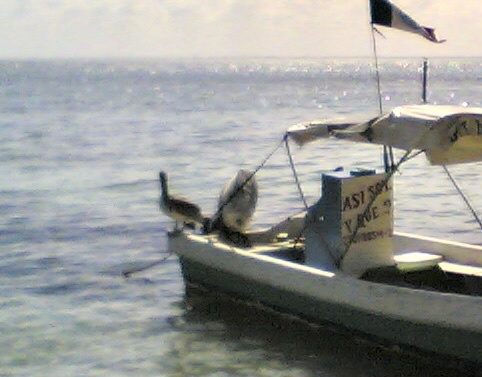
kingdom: Animalia
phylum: Chordata
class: Aves
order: Pelecaniformes
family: Pelecanidae
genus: Pelecanus
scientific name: Pelecanus occidentalis
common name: Brown pelican
